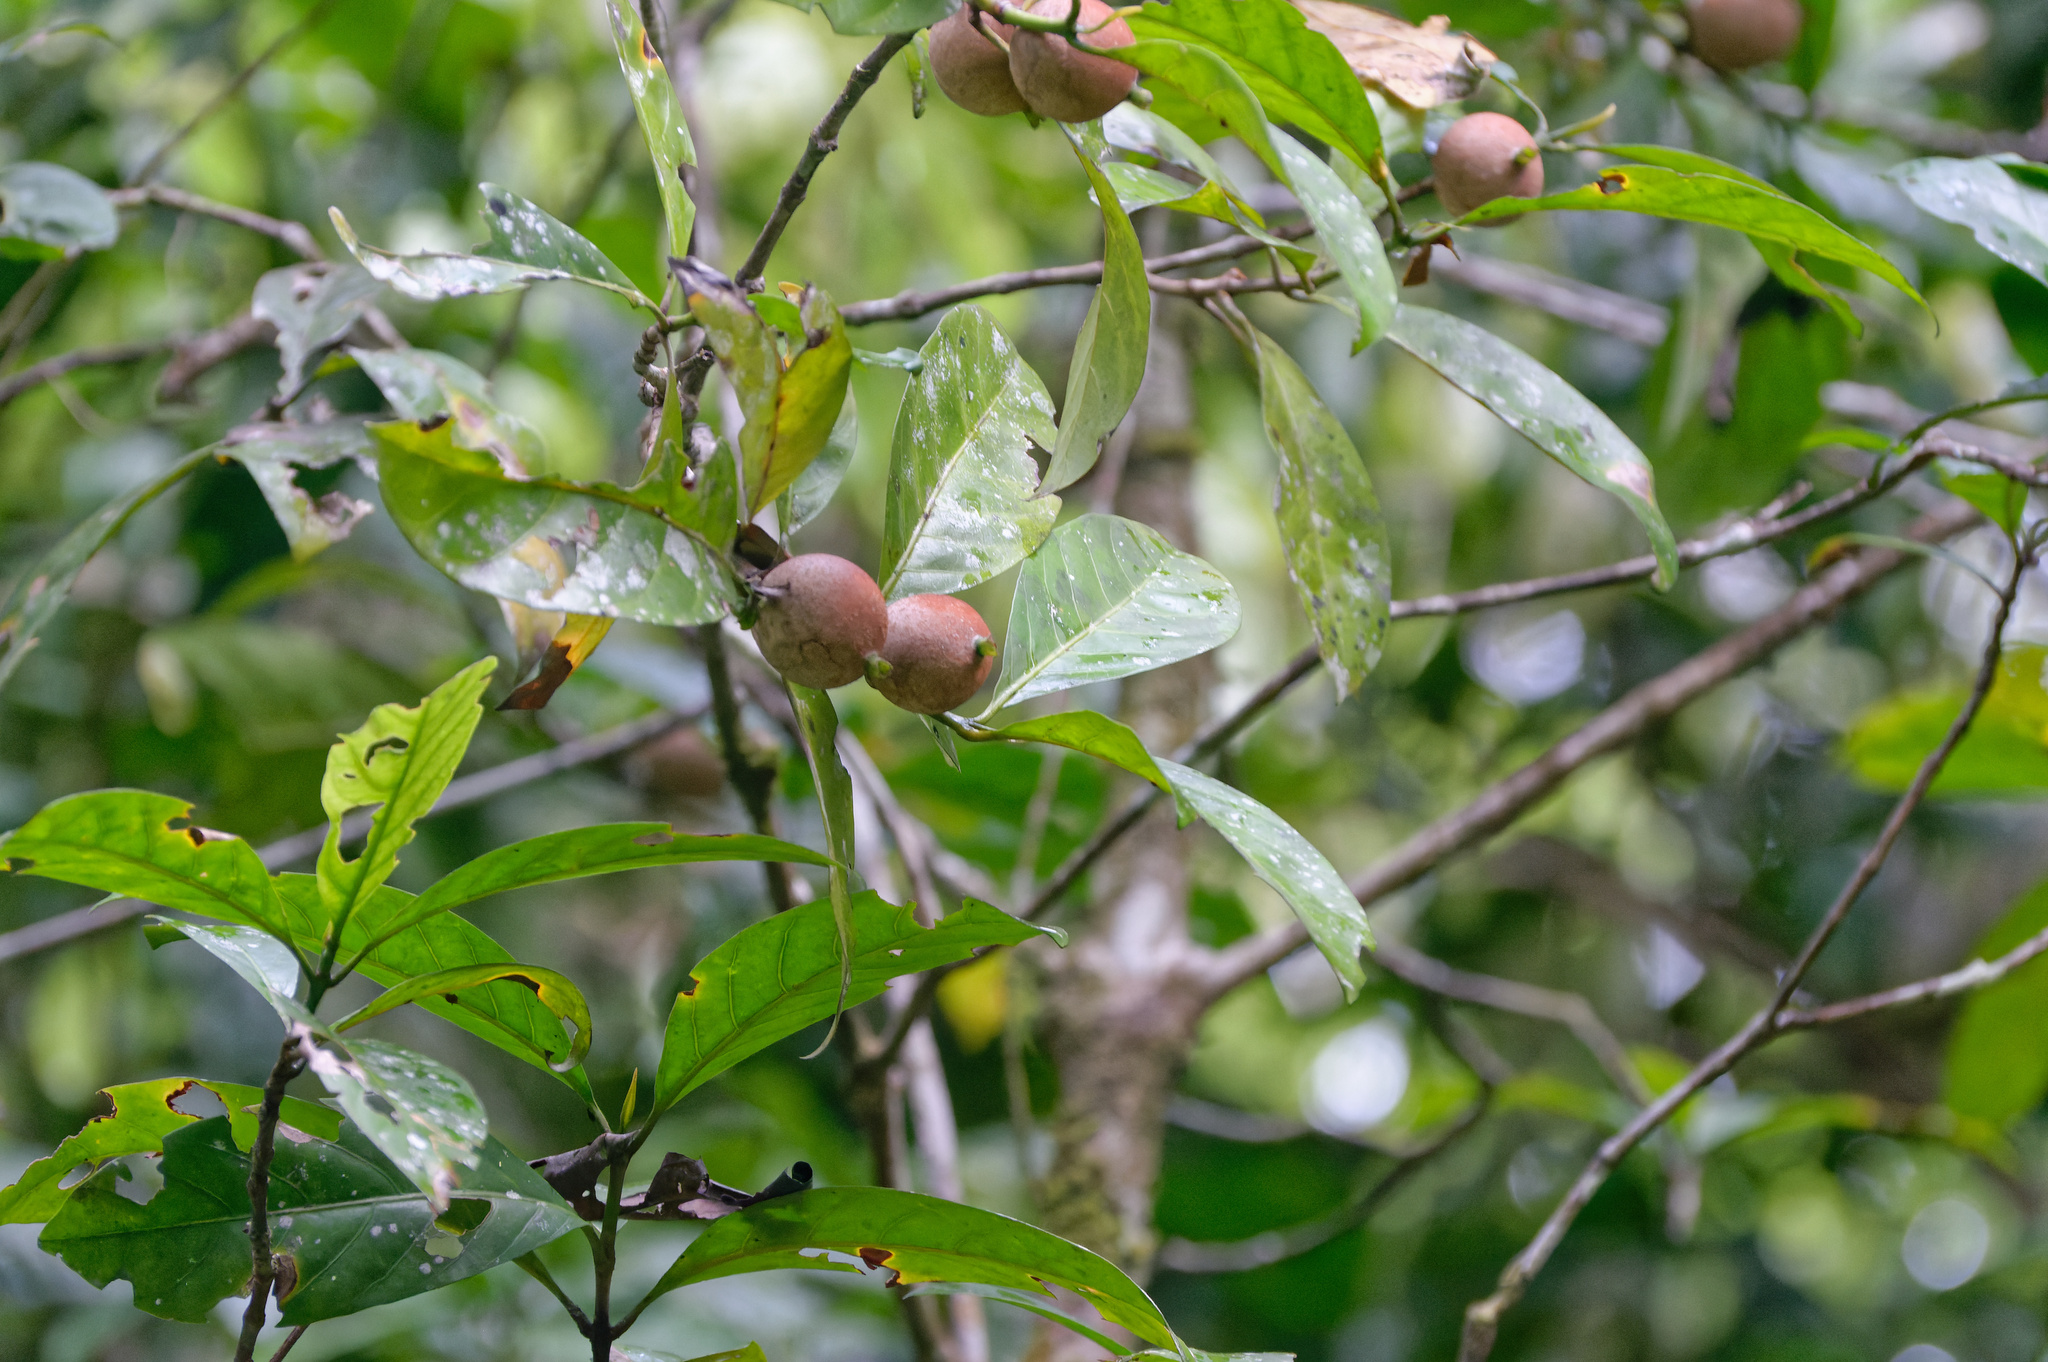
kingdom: Plantae
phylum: Tracheophyta
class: Magnoliopsida
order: Gentianales
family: Rubiaceae
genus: Atractocarpus
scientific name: Atractocarpus sessilis
